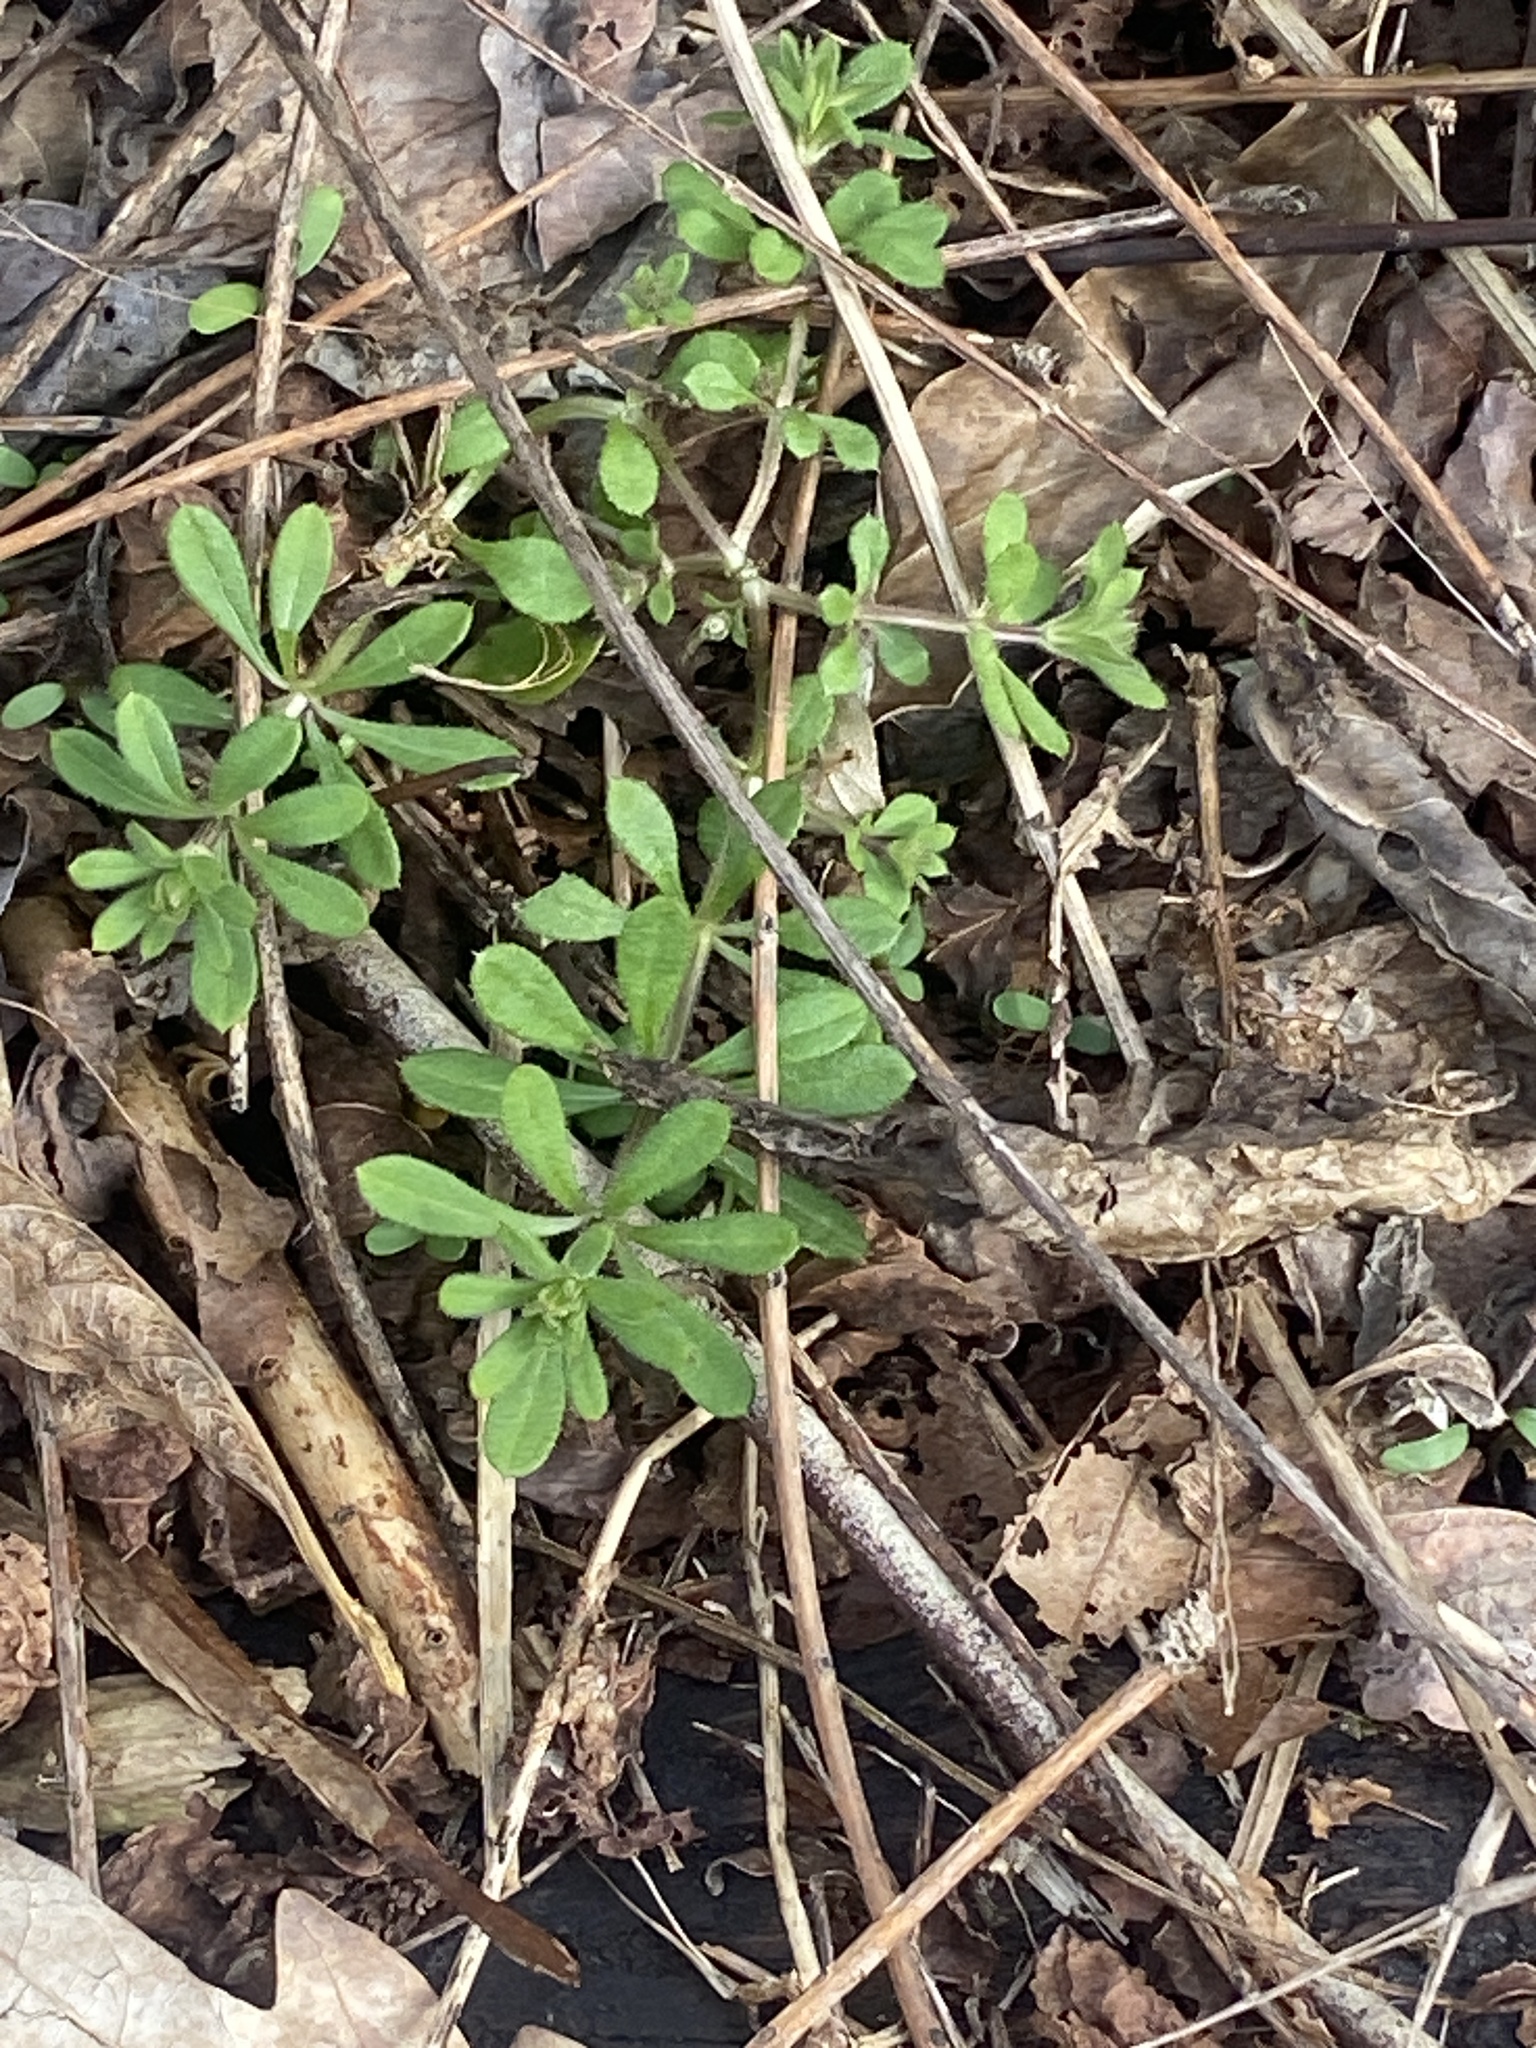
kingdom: Plantae
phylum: Tracheophyta
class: Magnoliopsida
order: Gentianales
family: Rubiaceae
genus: Galium
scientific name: Galium aparine
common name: Cleavers
